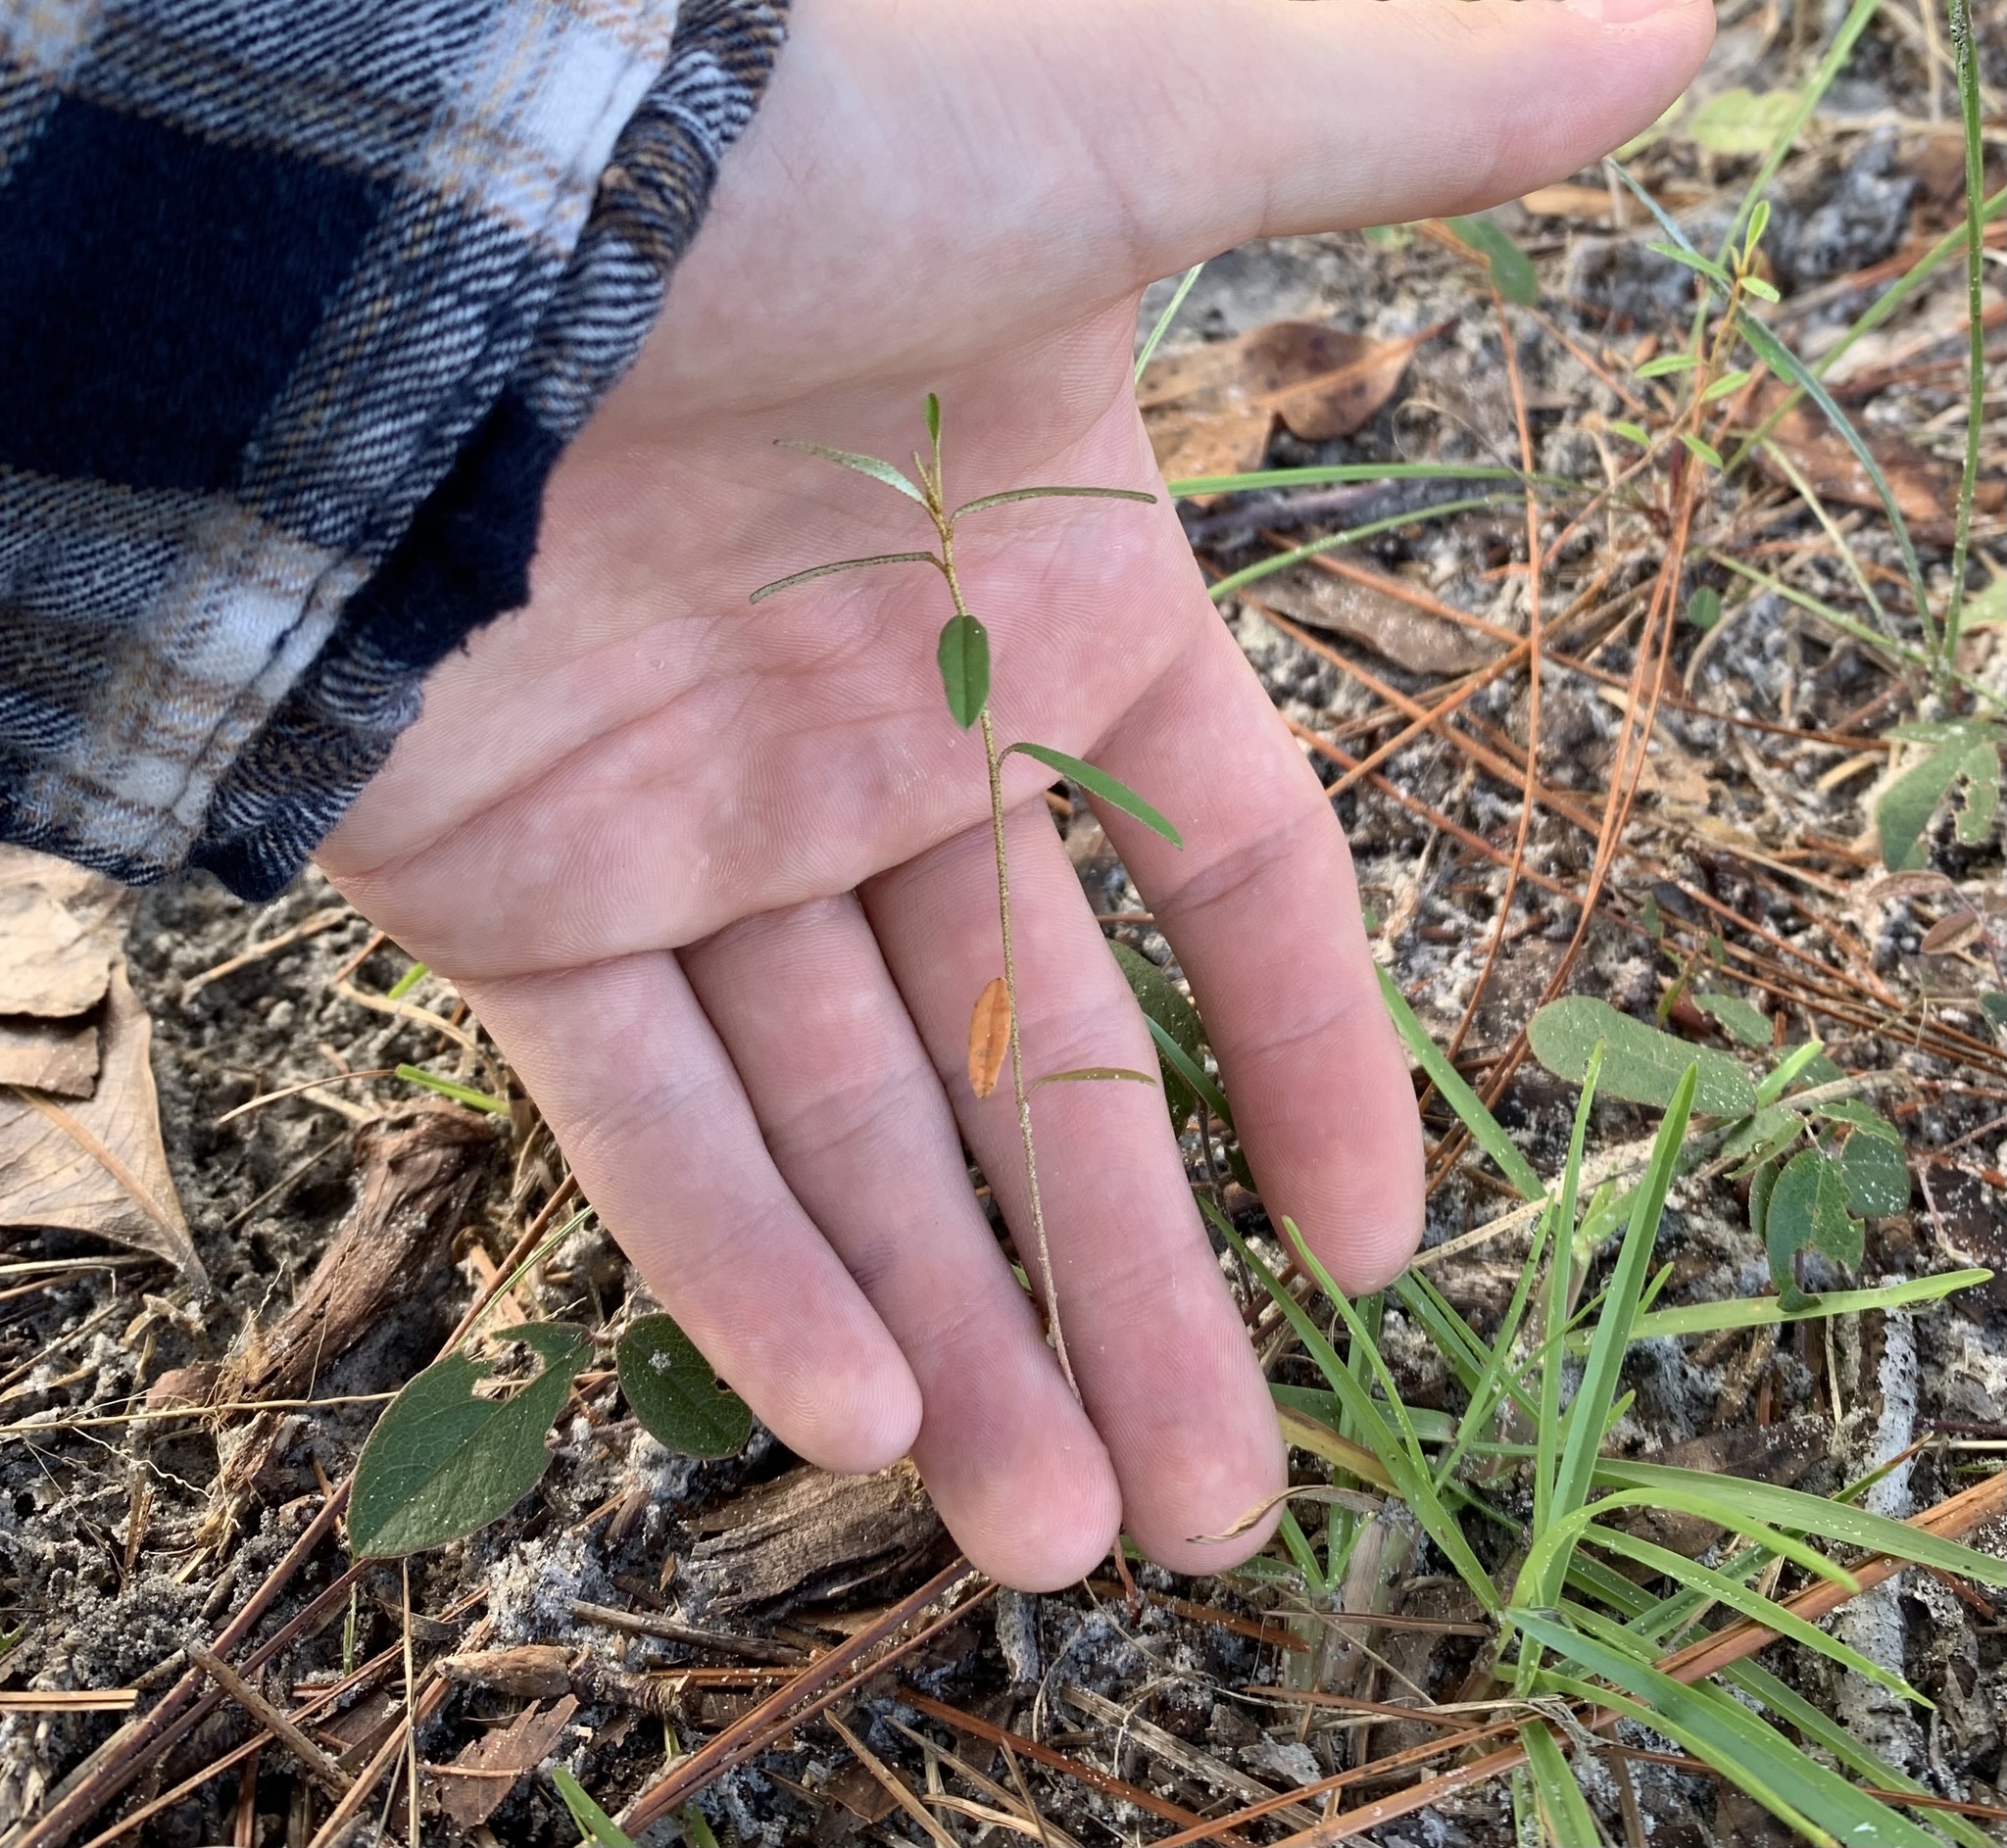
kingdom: Plantae
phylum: Tracheophyta
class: Magnoliopsida
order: Malpighiales
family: Euphorbiaceae
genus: Croton
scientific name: Croton michauxii
